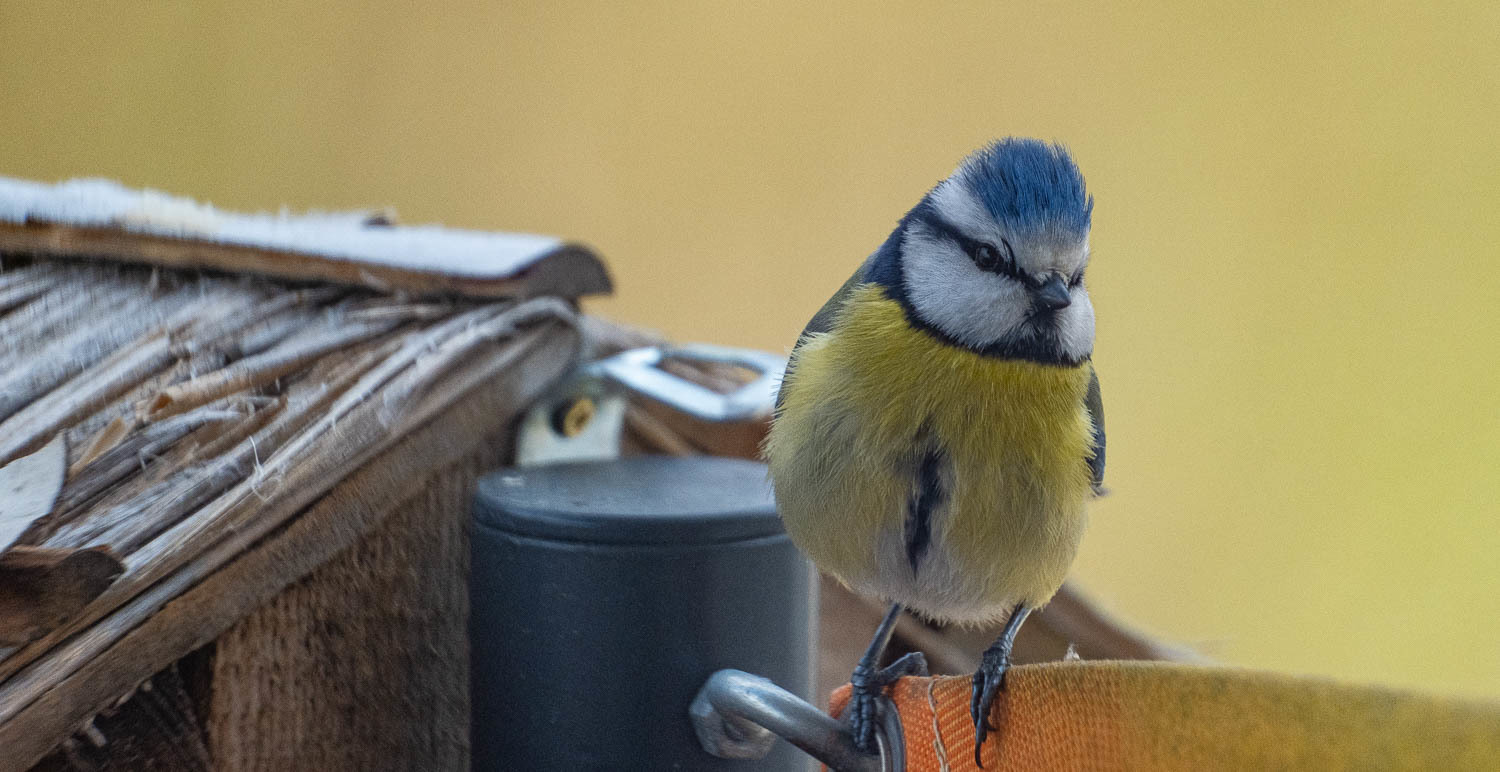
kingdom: Animalia
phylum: Chordata
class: Aves
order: Passeriformes
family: Paridae
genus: Cyanistes
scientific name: Cyanistes caeruleus
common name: Eurasian blue tit
